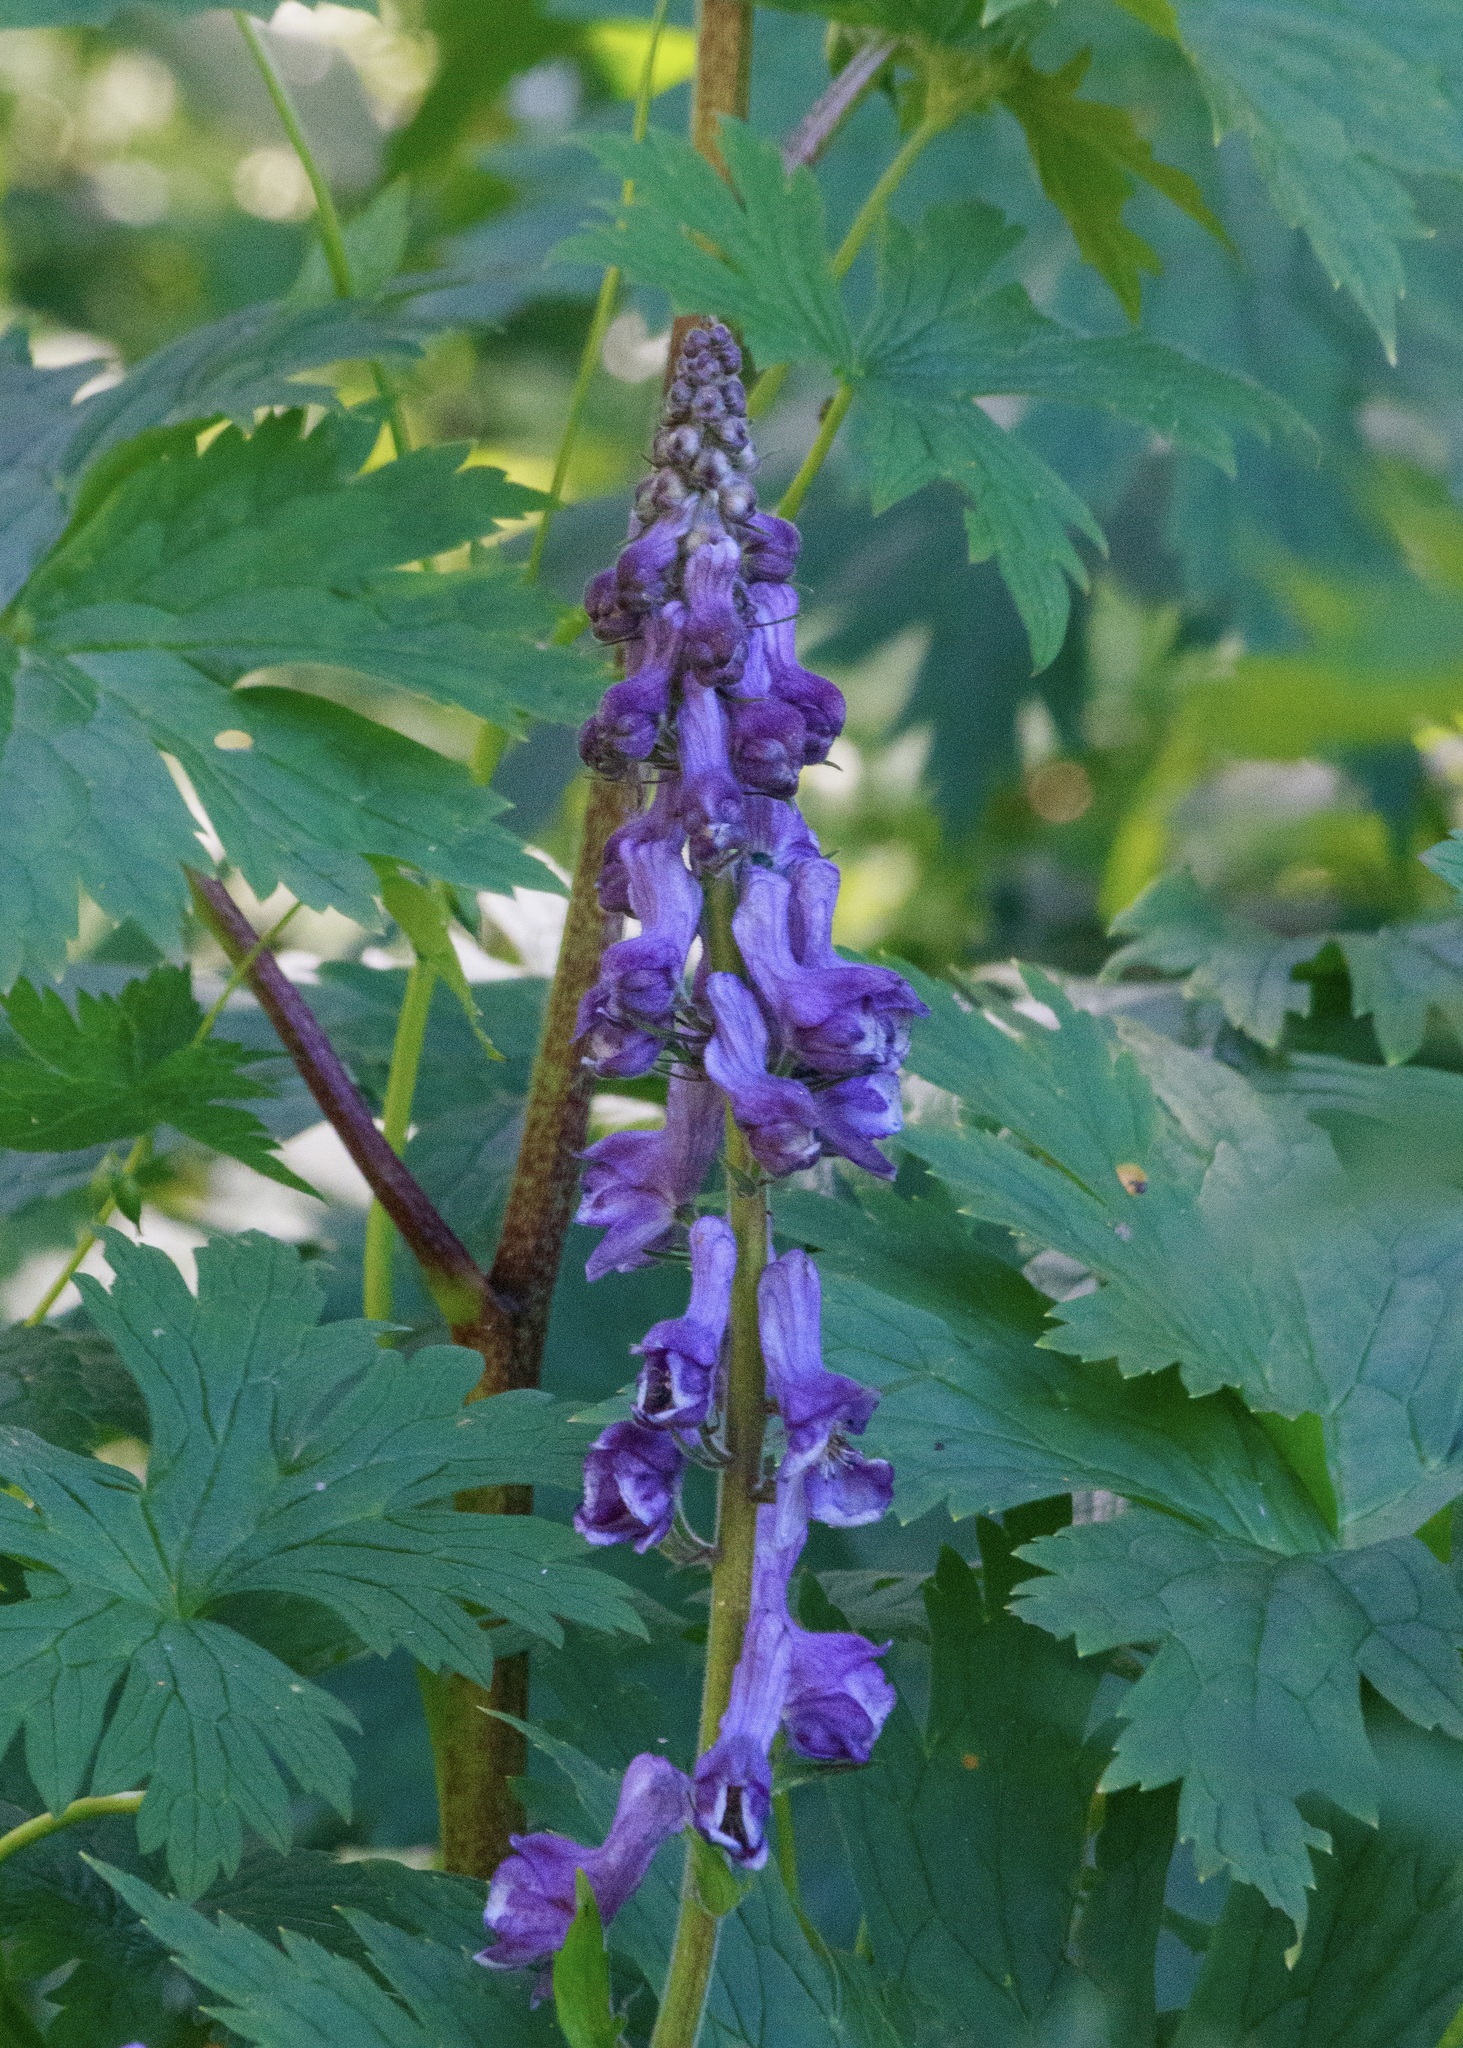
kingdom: Plantae
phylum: Tracheophyta
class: Magnoliopsida
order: Ranunculales
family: Ranunculaceae
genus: Aconitum
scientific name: Aconitum leucostomum
